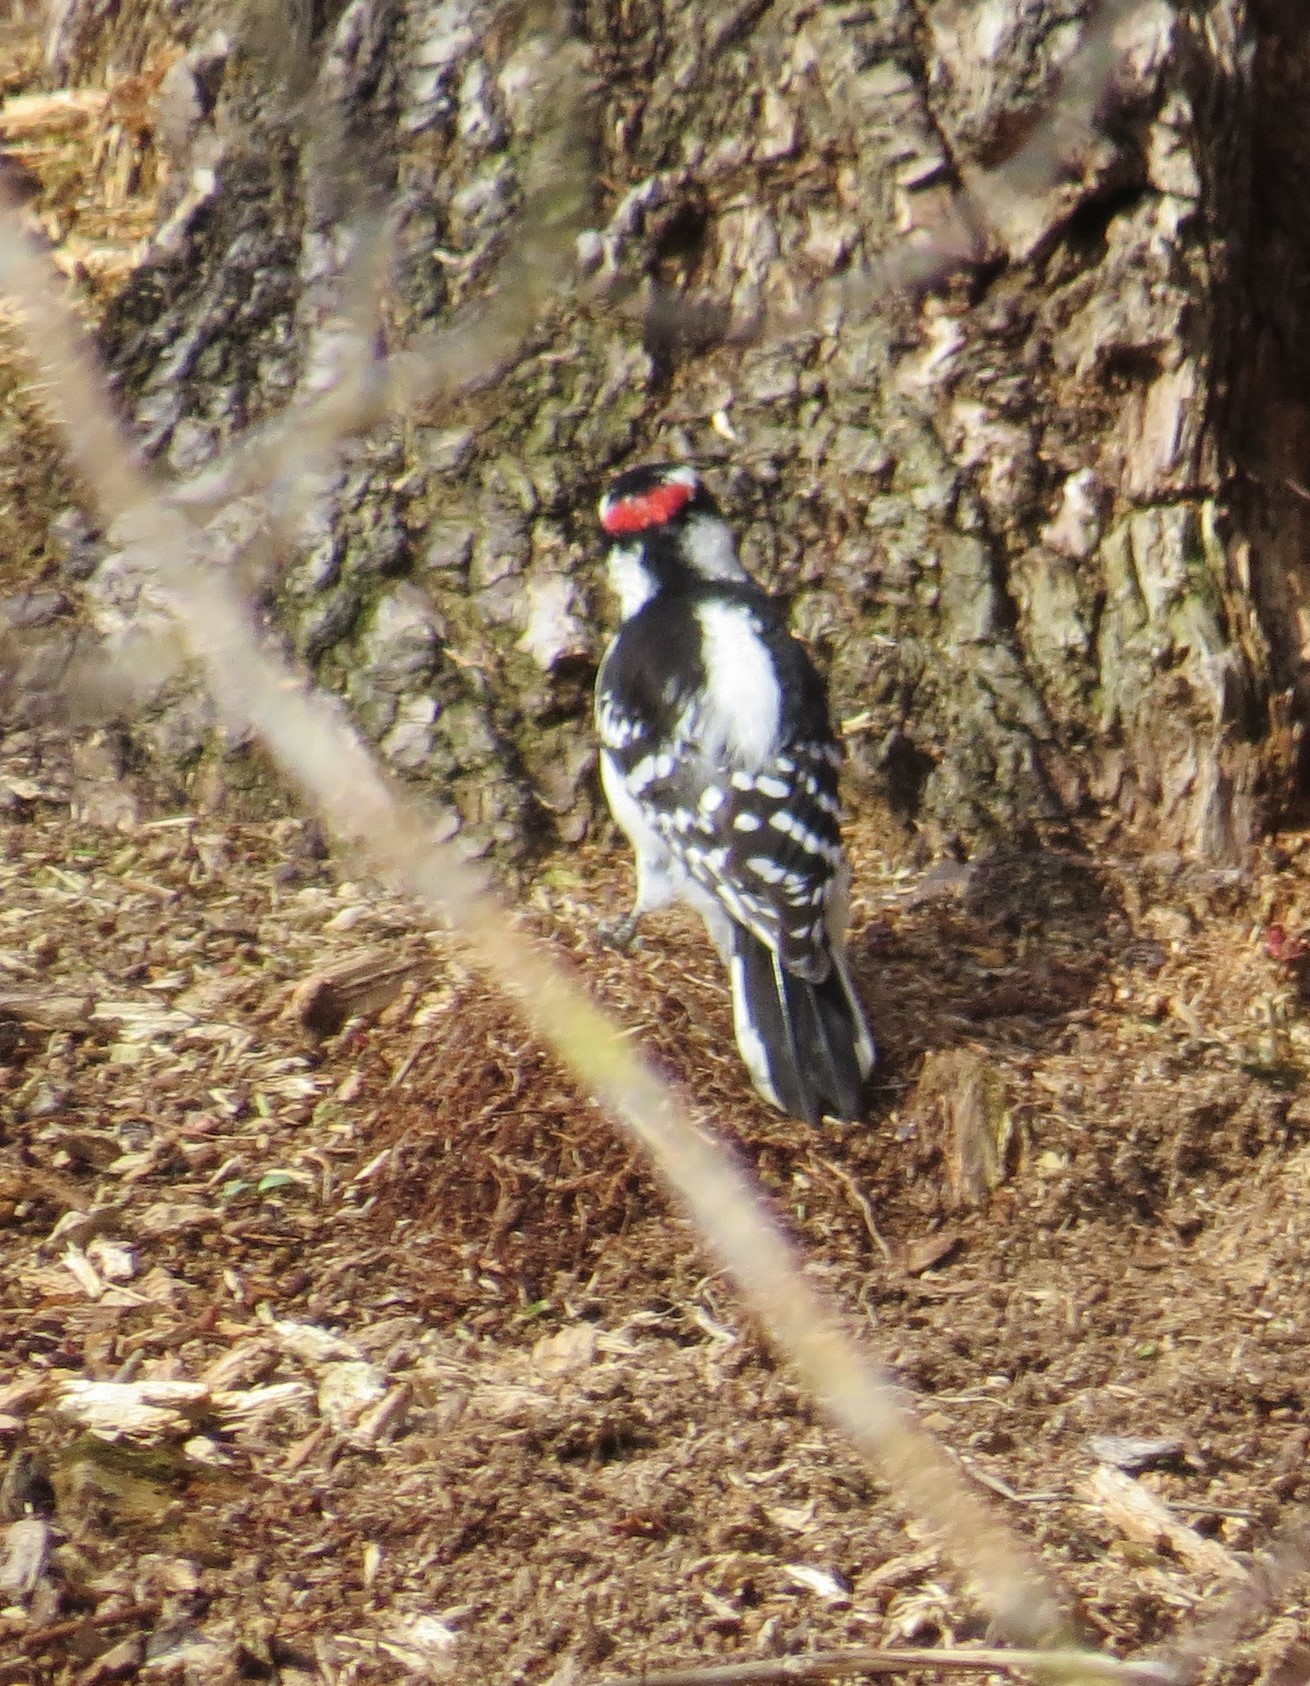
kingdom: Animalia
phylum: Chordata
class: Aves
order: Piciformes
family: Picidae
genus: Dryobates
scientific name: Dryobates pubescens
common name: Downy woodpecker
